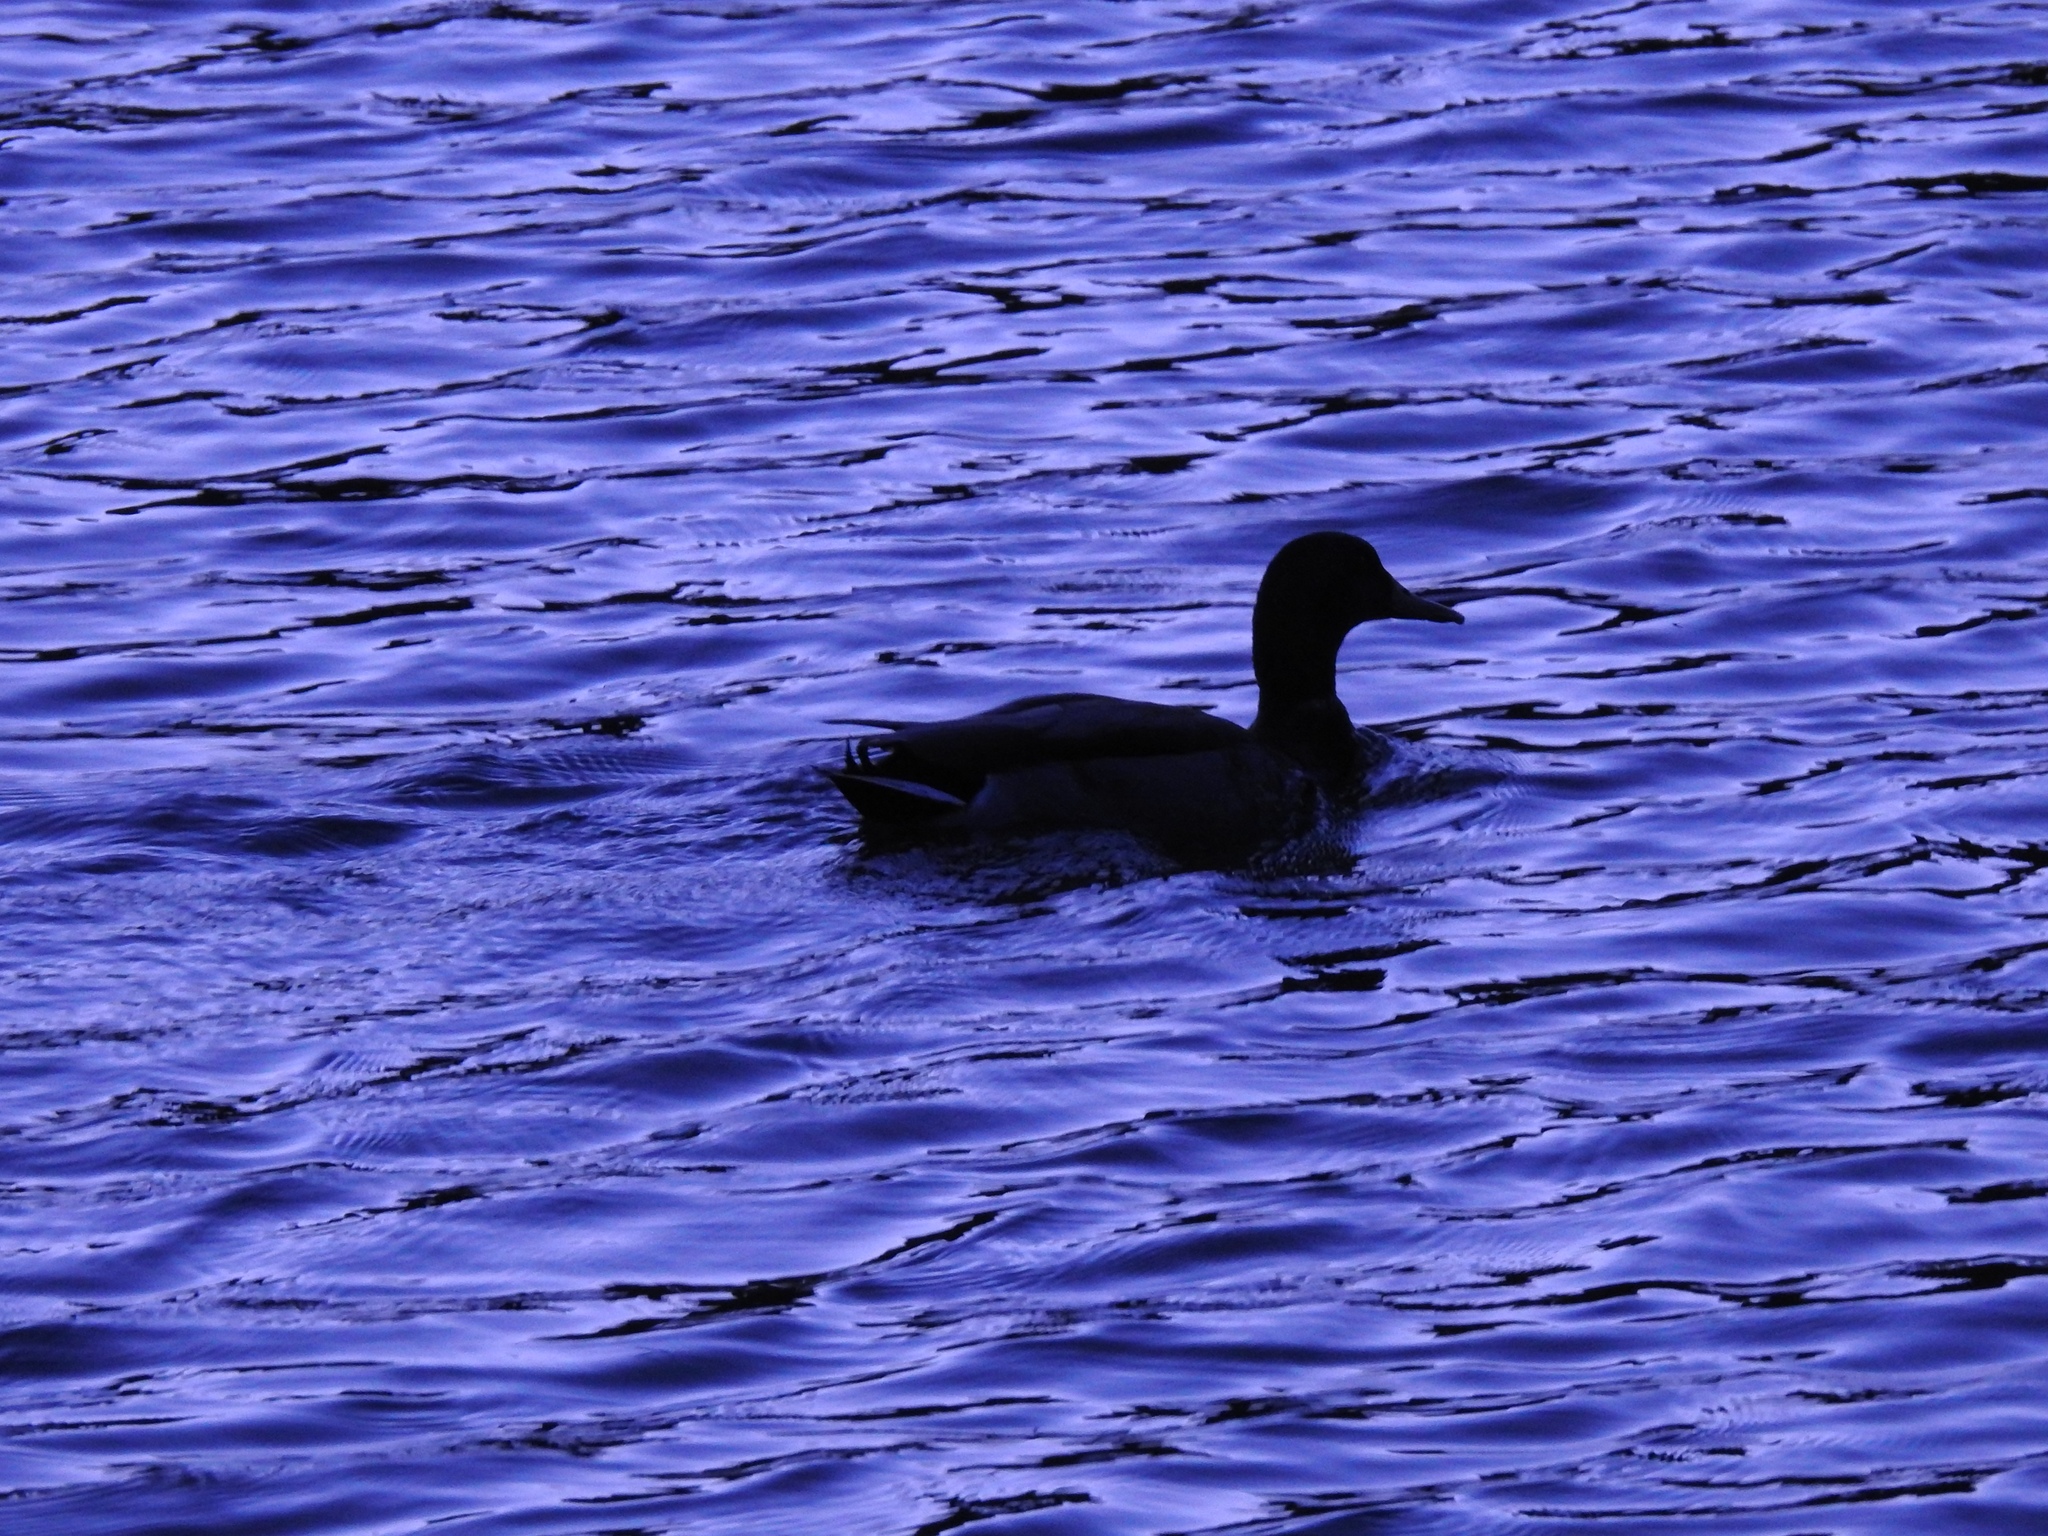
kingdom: Animalia
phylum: Chordata
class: Aves
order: Anseriformes
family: Anatidae
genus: Anas
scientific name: Anas platyrhynchos
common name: Mallard
